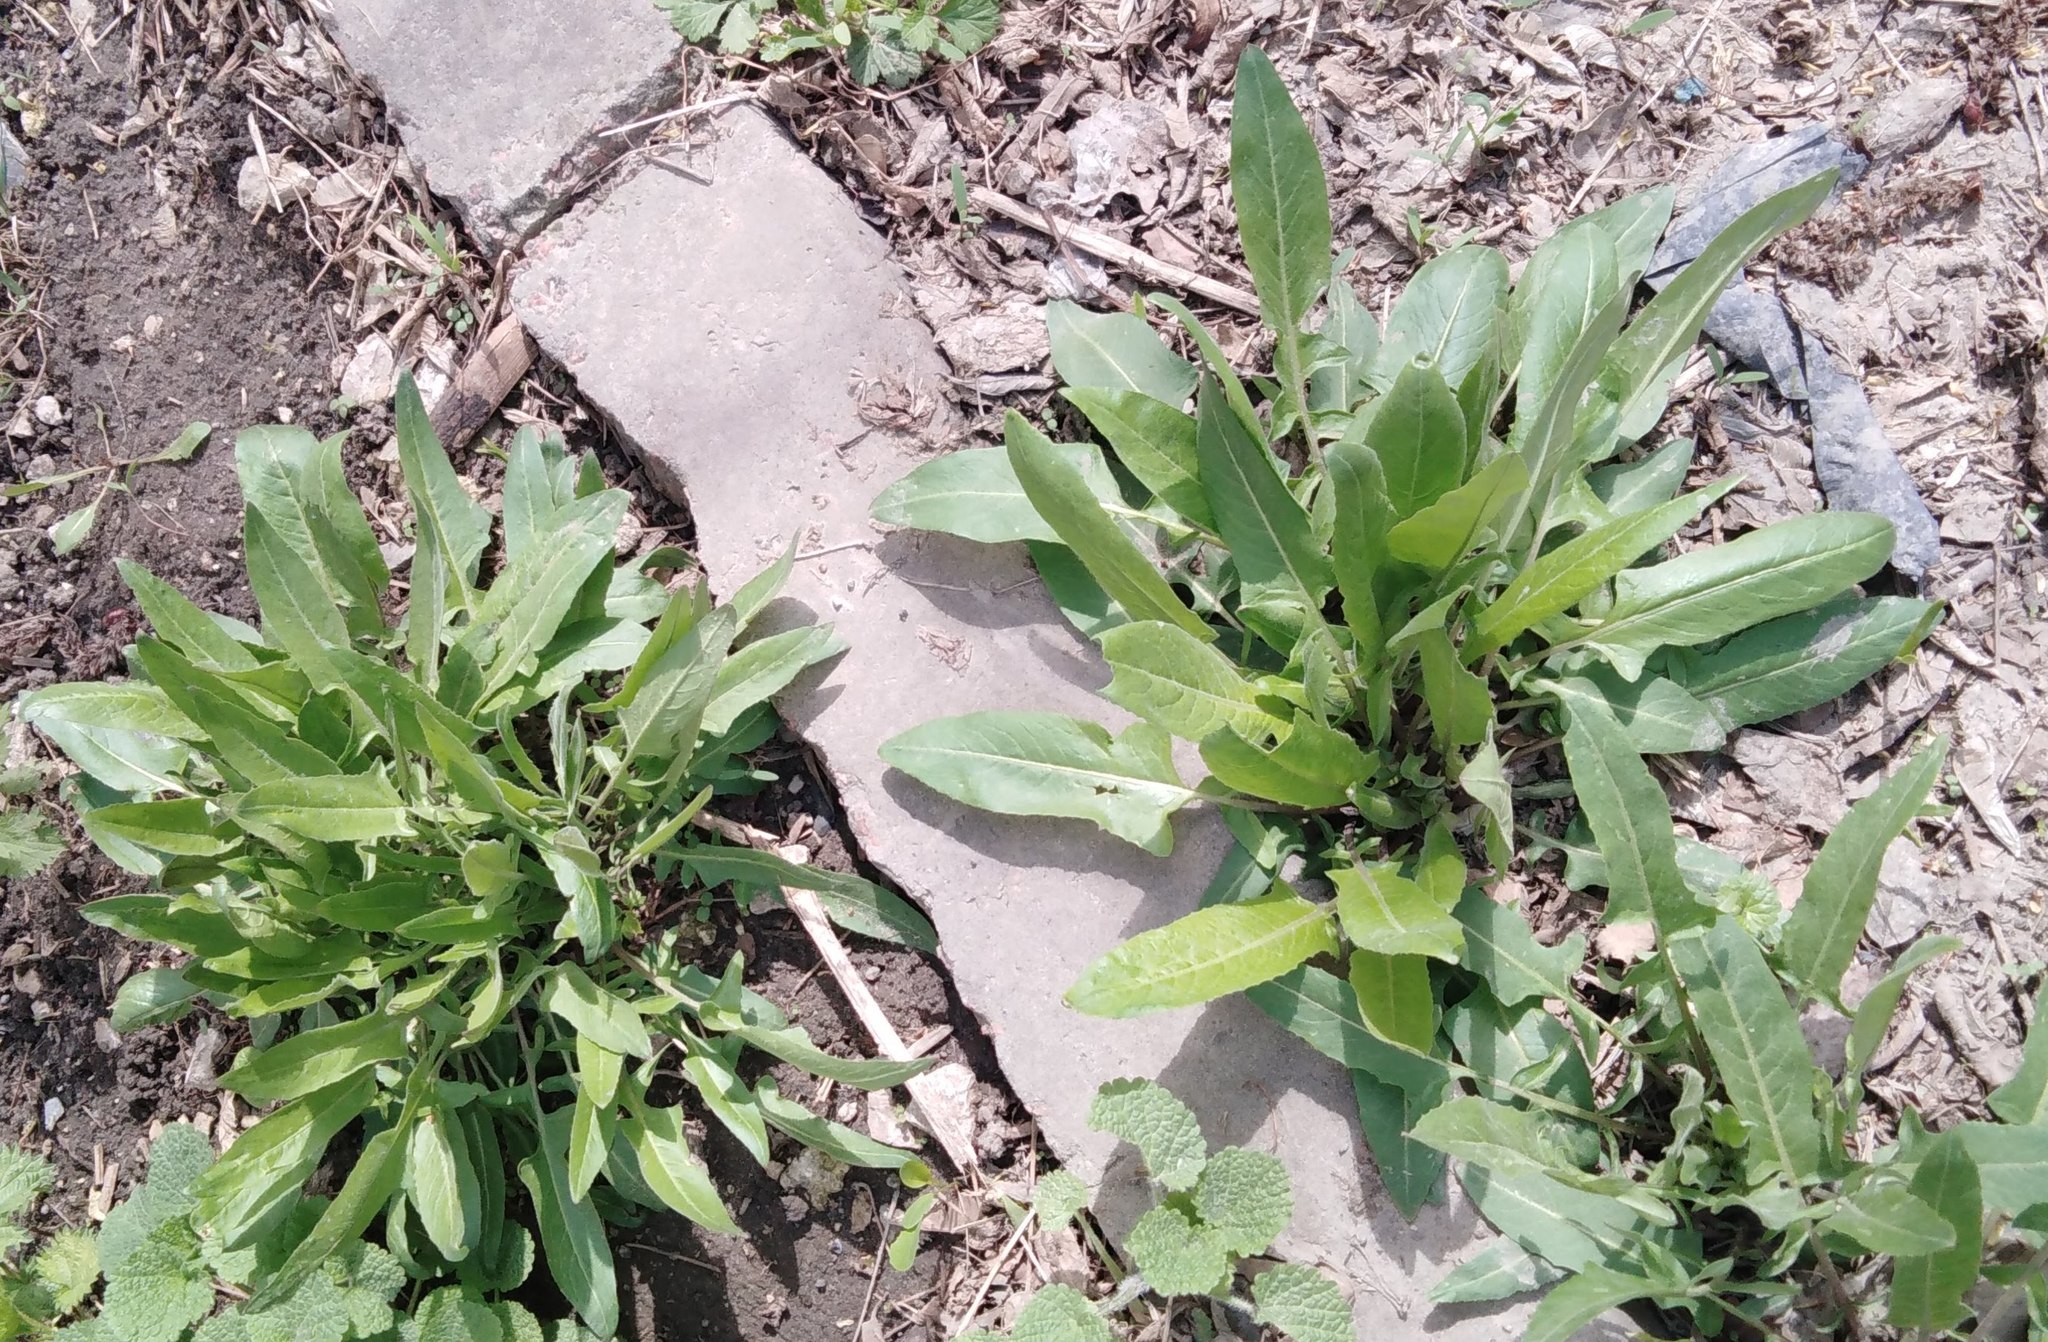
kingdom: Plantae
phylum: Tracheophyta
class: Magnoliopsida
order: Brassicales
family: Brassicaceae
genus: Bunias
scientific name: Bunias orientalis
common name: Warty-cabbage
